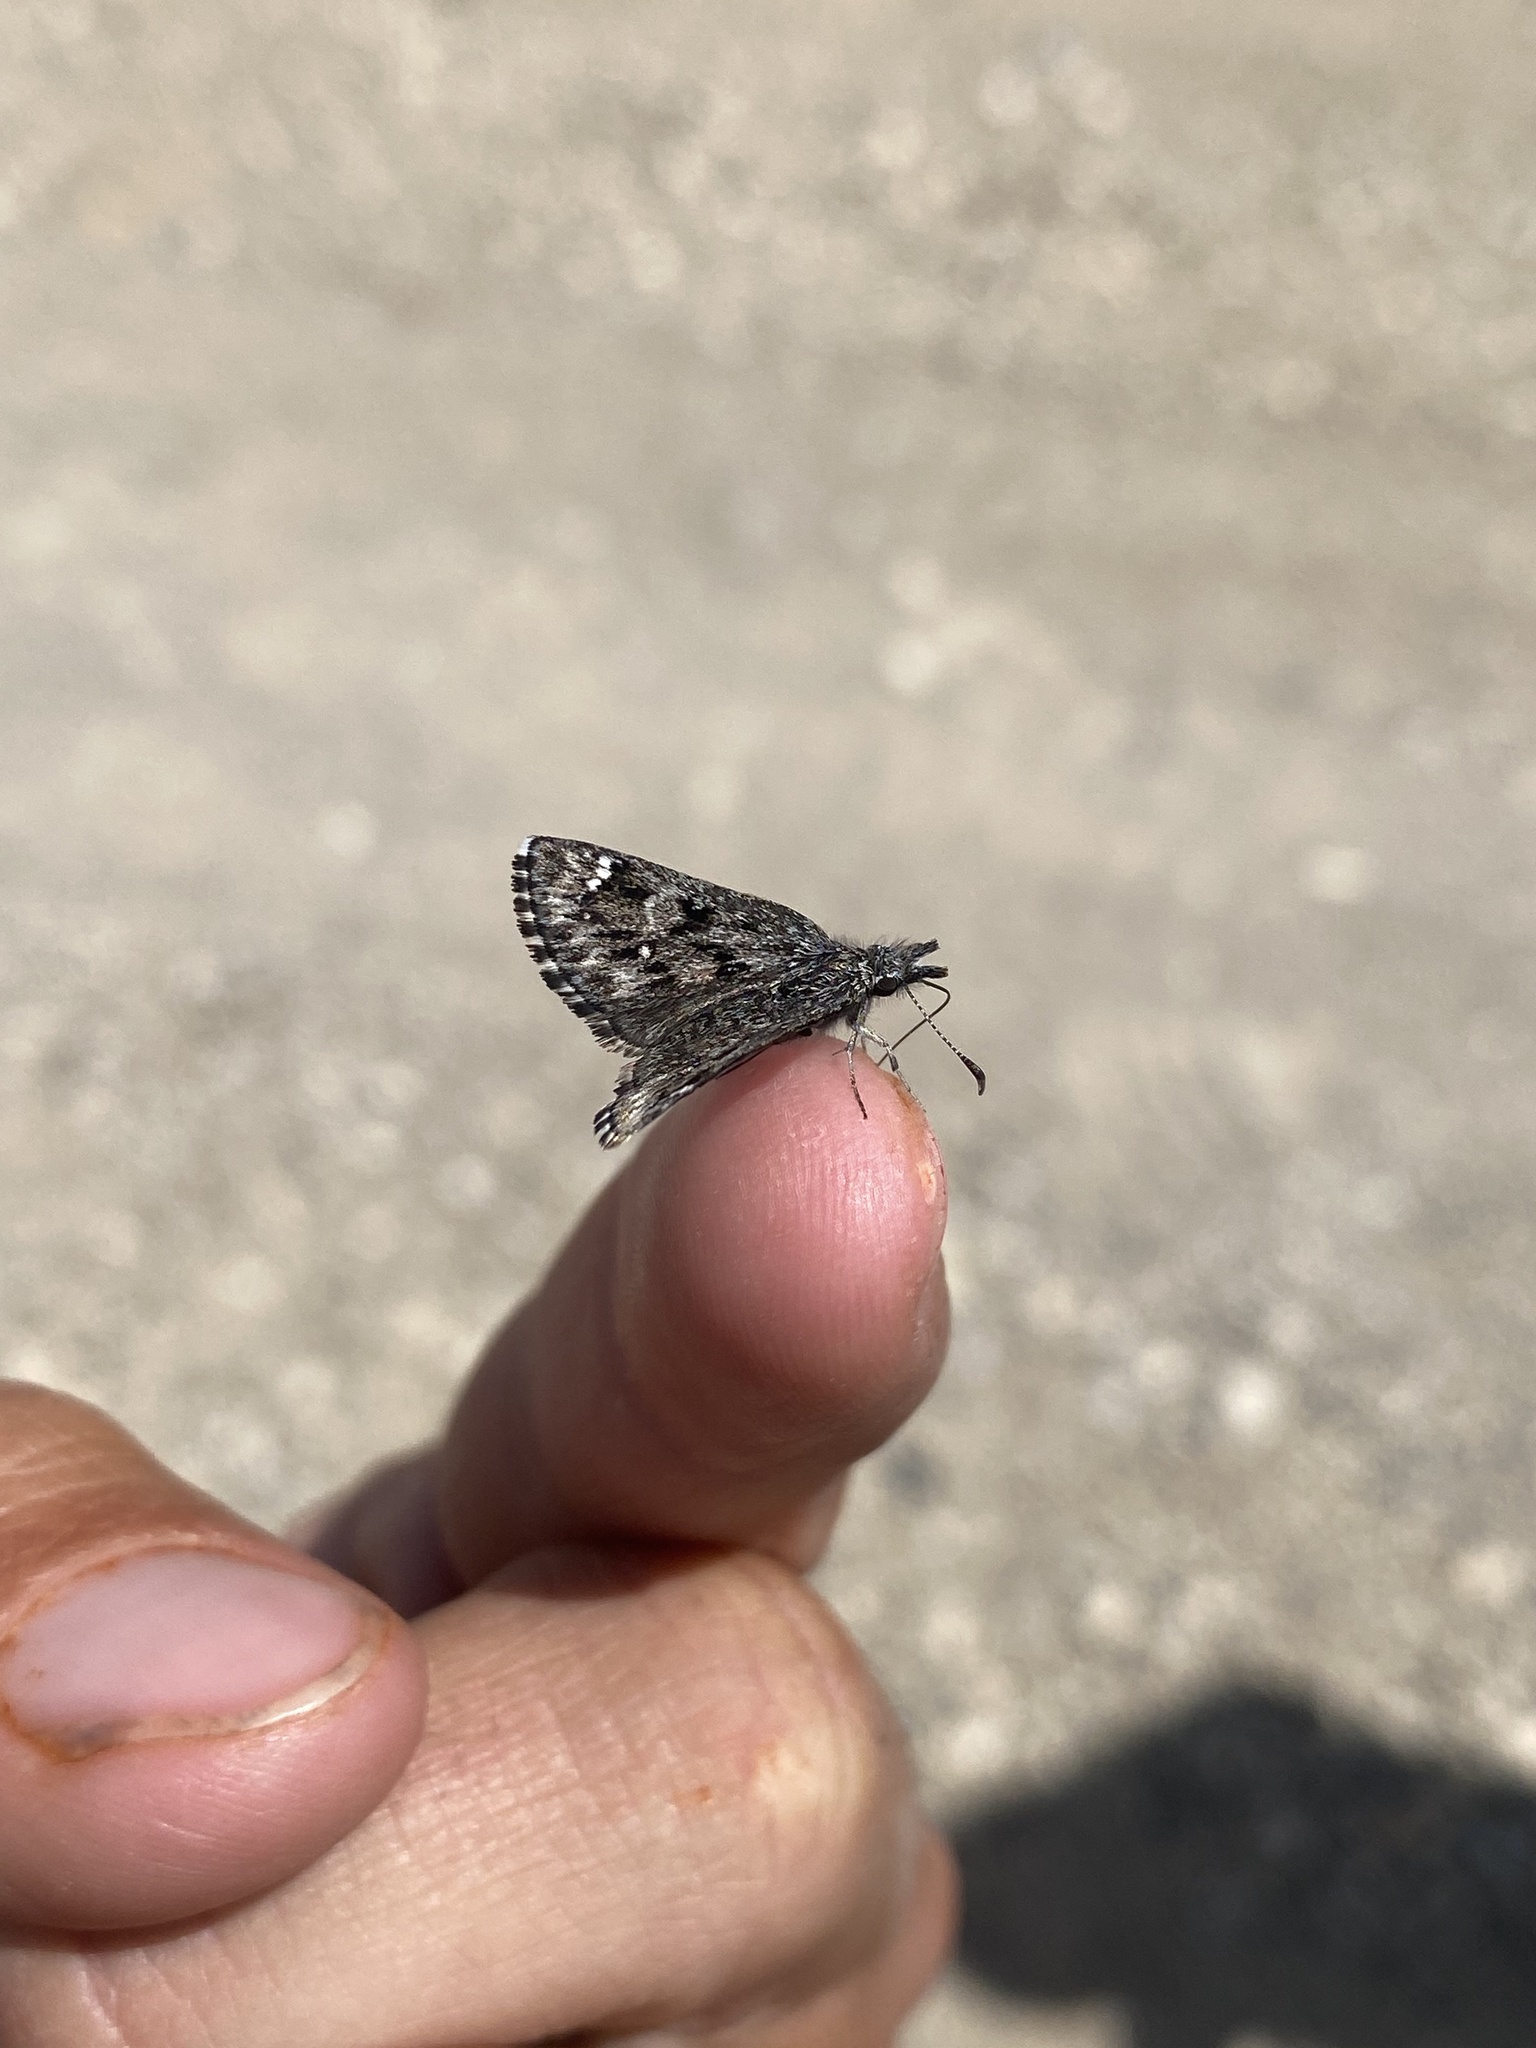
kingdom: Animalia
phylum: Arthropoda
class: Insecta
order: Lepidoptera
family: Hesperiidae
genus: Hesperopsis
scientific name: Hesperopsis alpheus
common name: Saltbush sootywing
